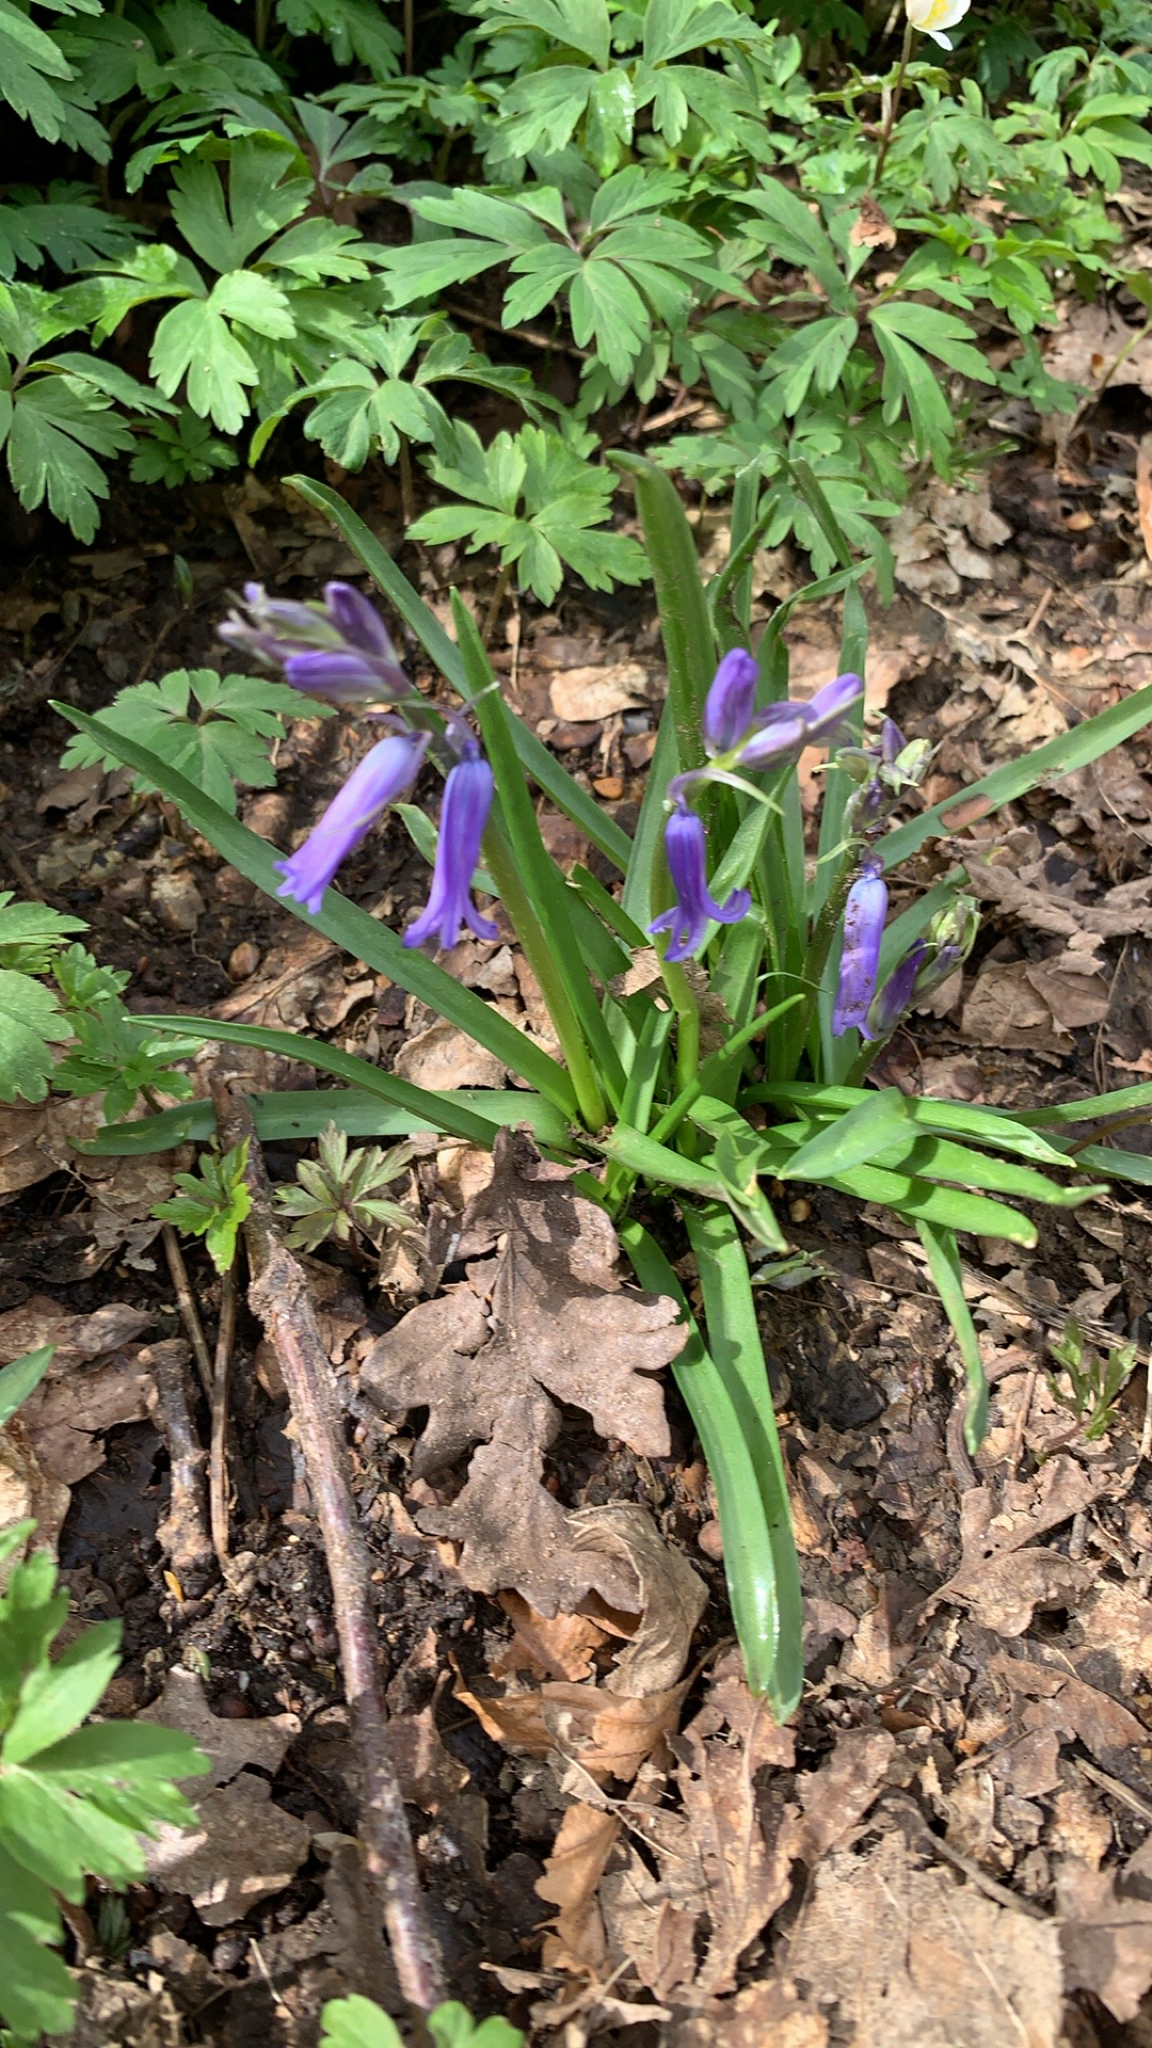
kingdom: Plantae
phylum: Tracheophyta
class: Liliopsida
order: Asparagales
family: Asparagaceae
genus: Hyacinthoides
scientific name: Hyacinthoides non-scripta
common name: Bluebell
